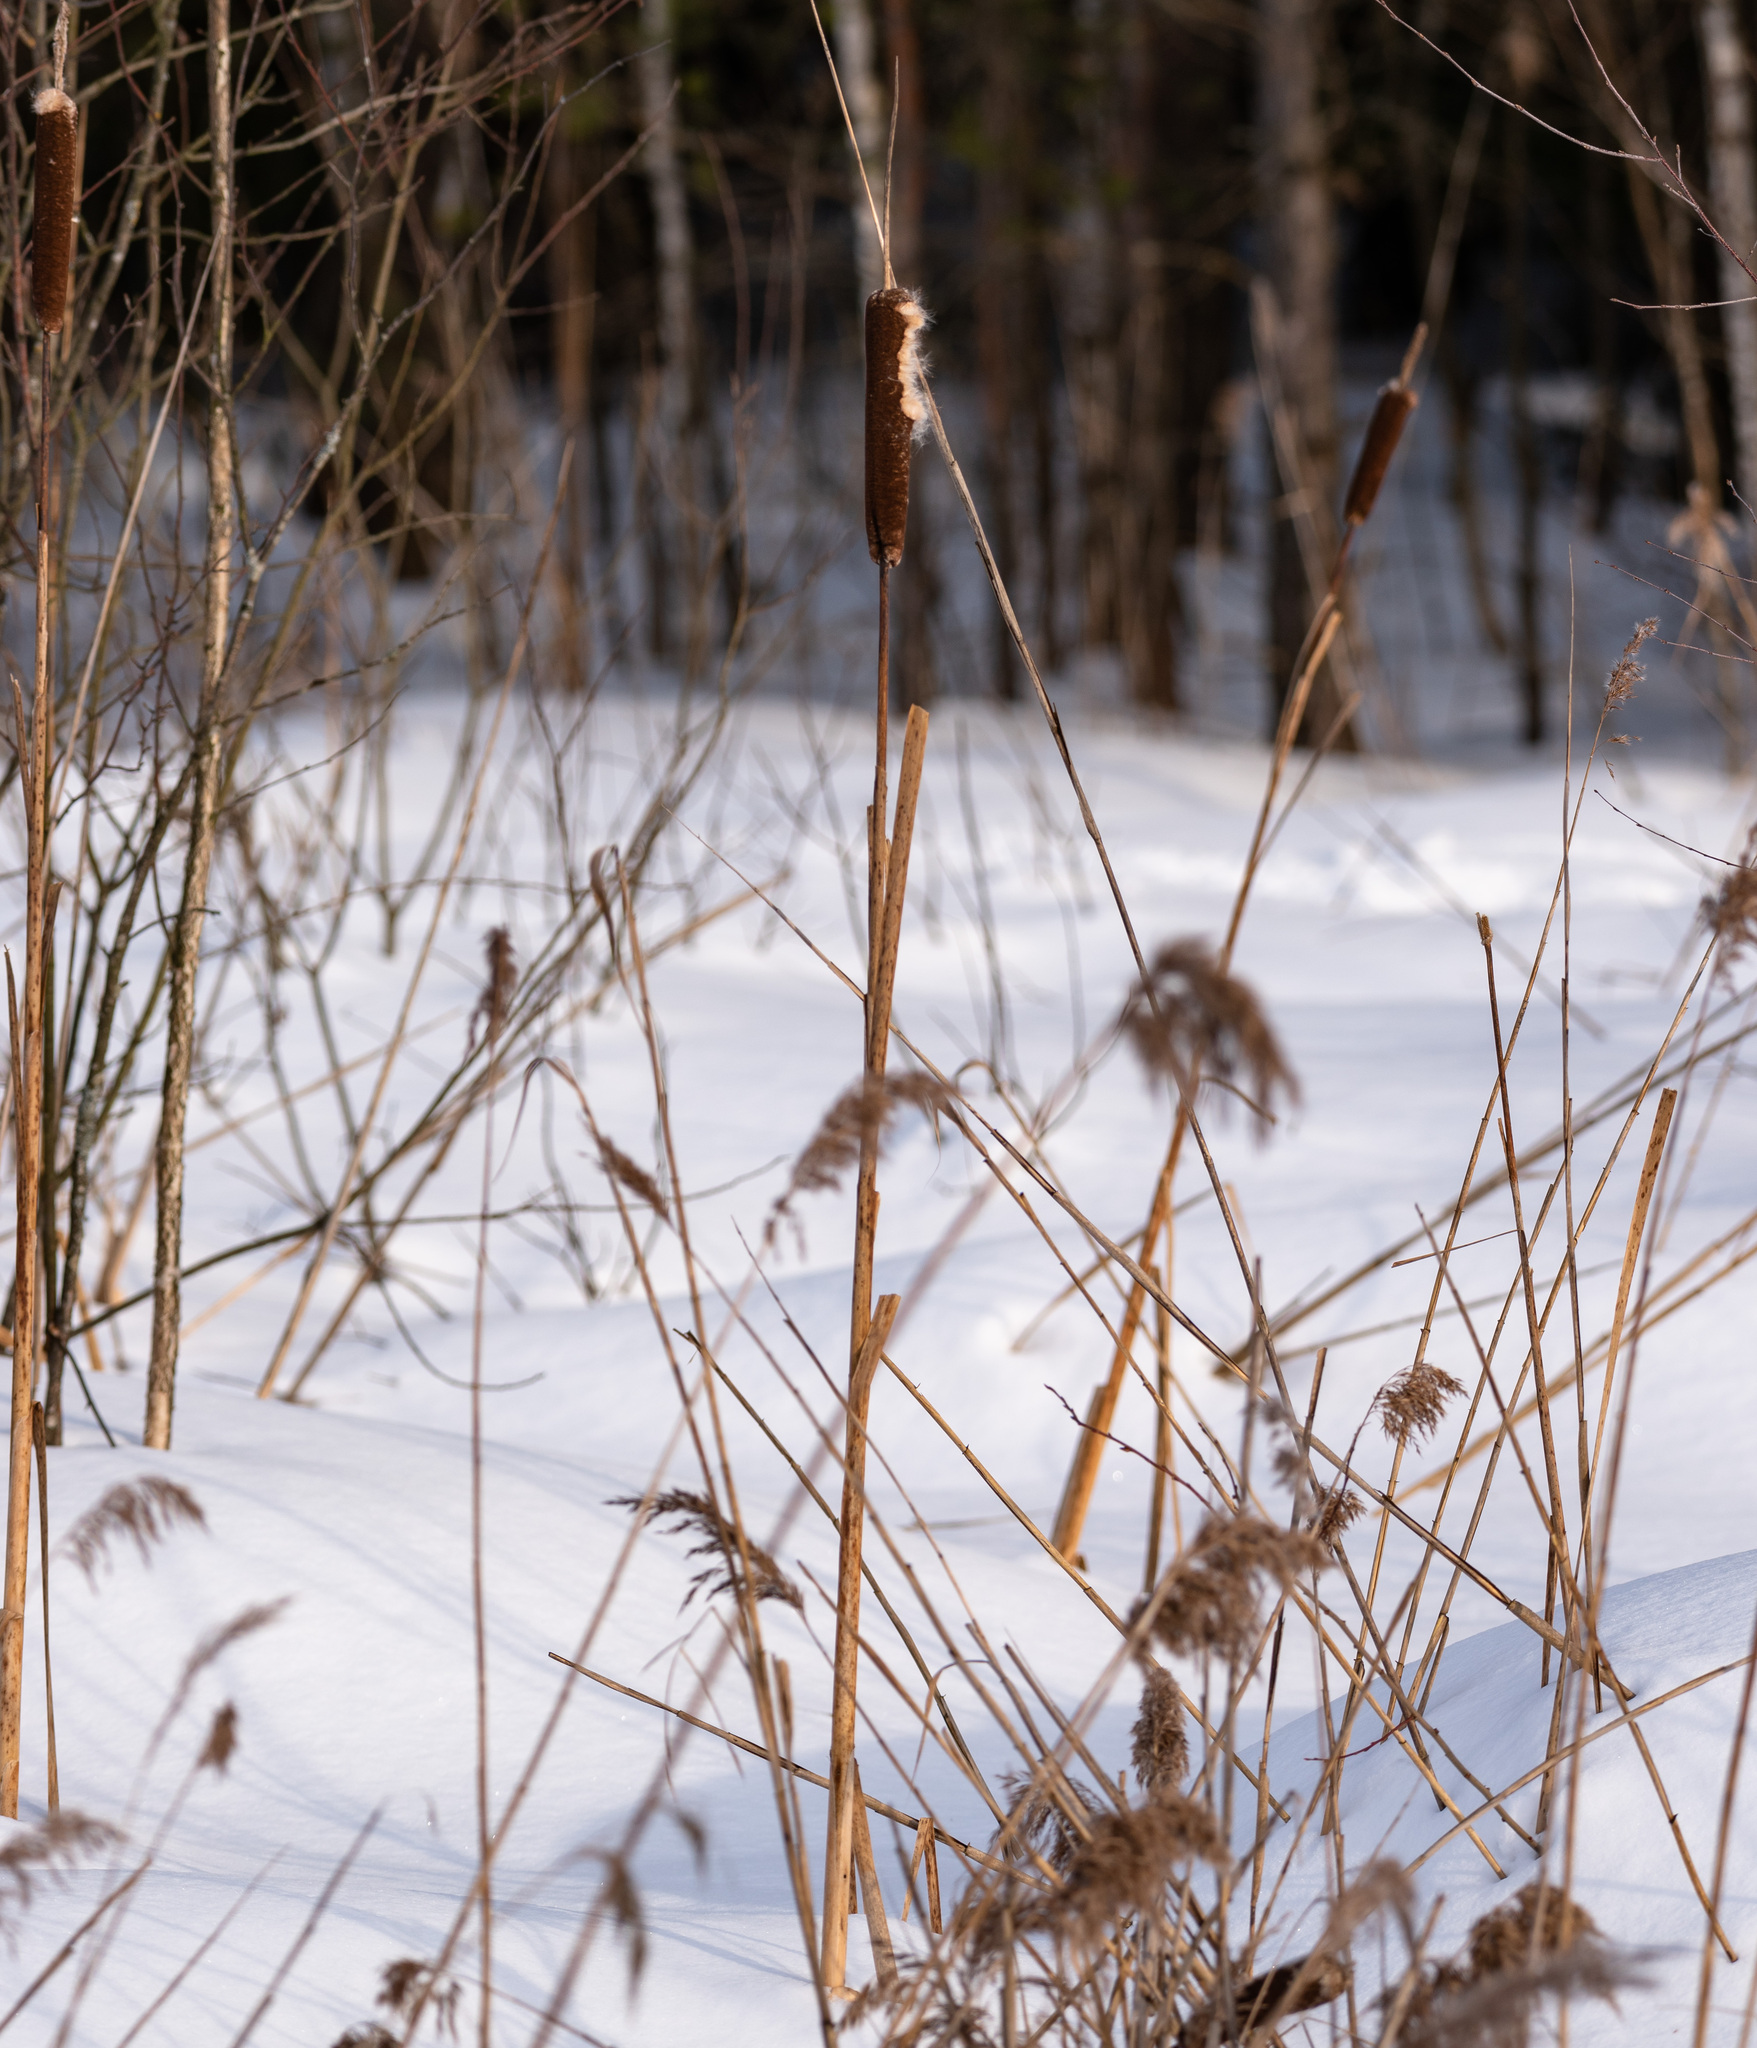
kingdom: Plantae
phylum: Tracheophyta
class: Liliopsida
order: Poales
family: Typhaceae
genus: Typha
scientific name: Typha latifolia
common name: Broadleaf cattail
